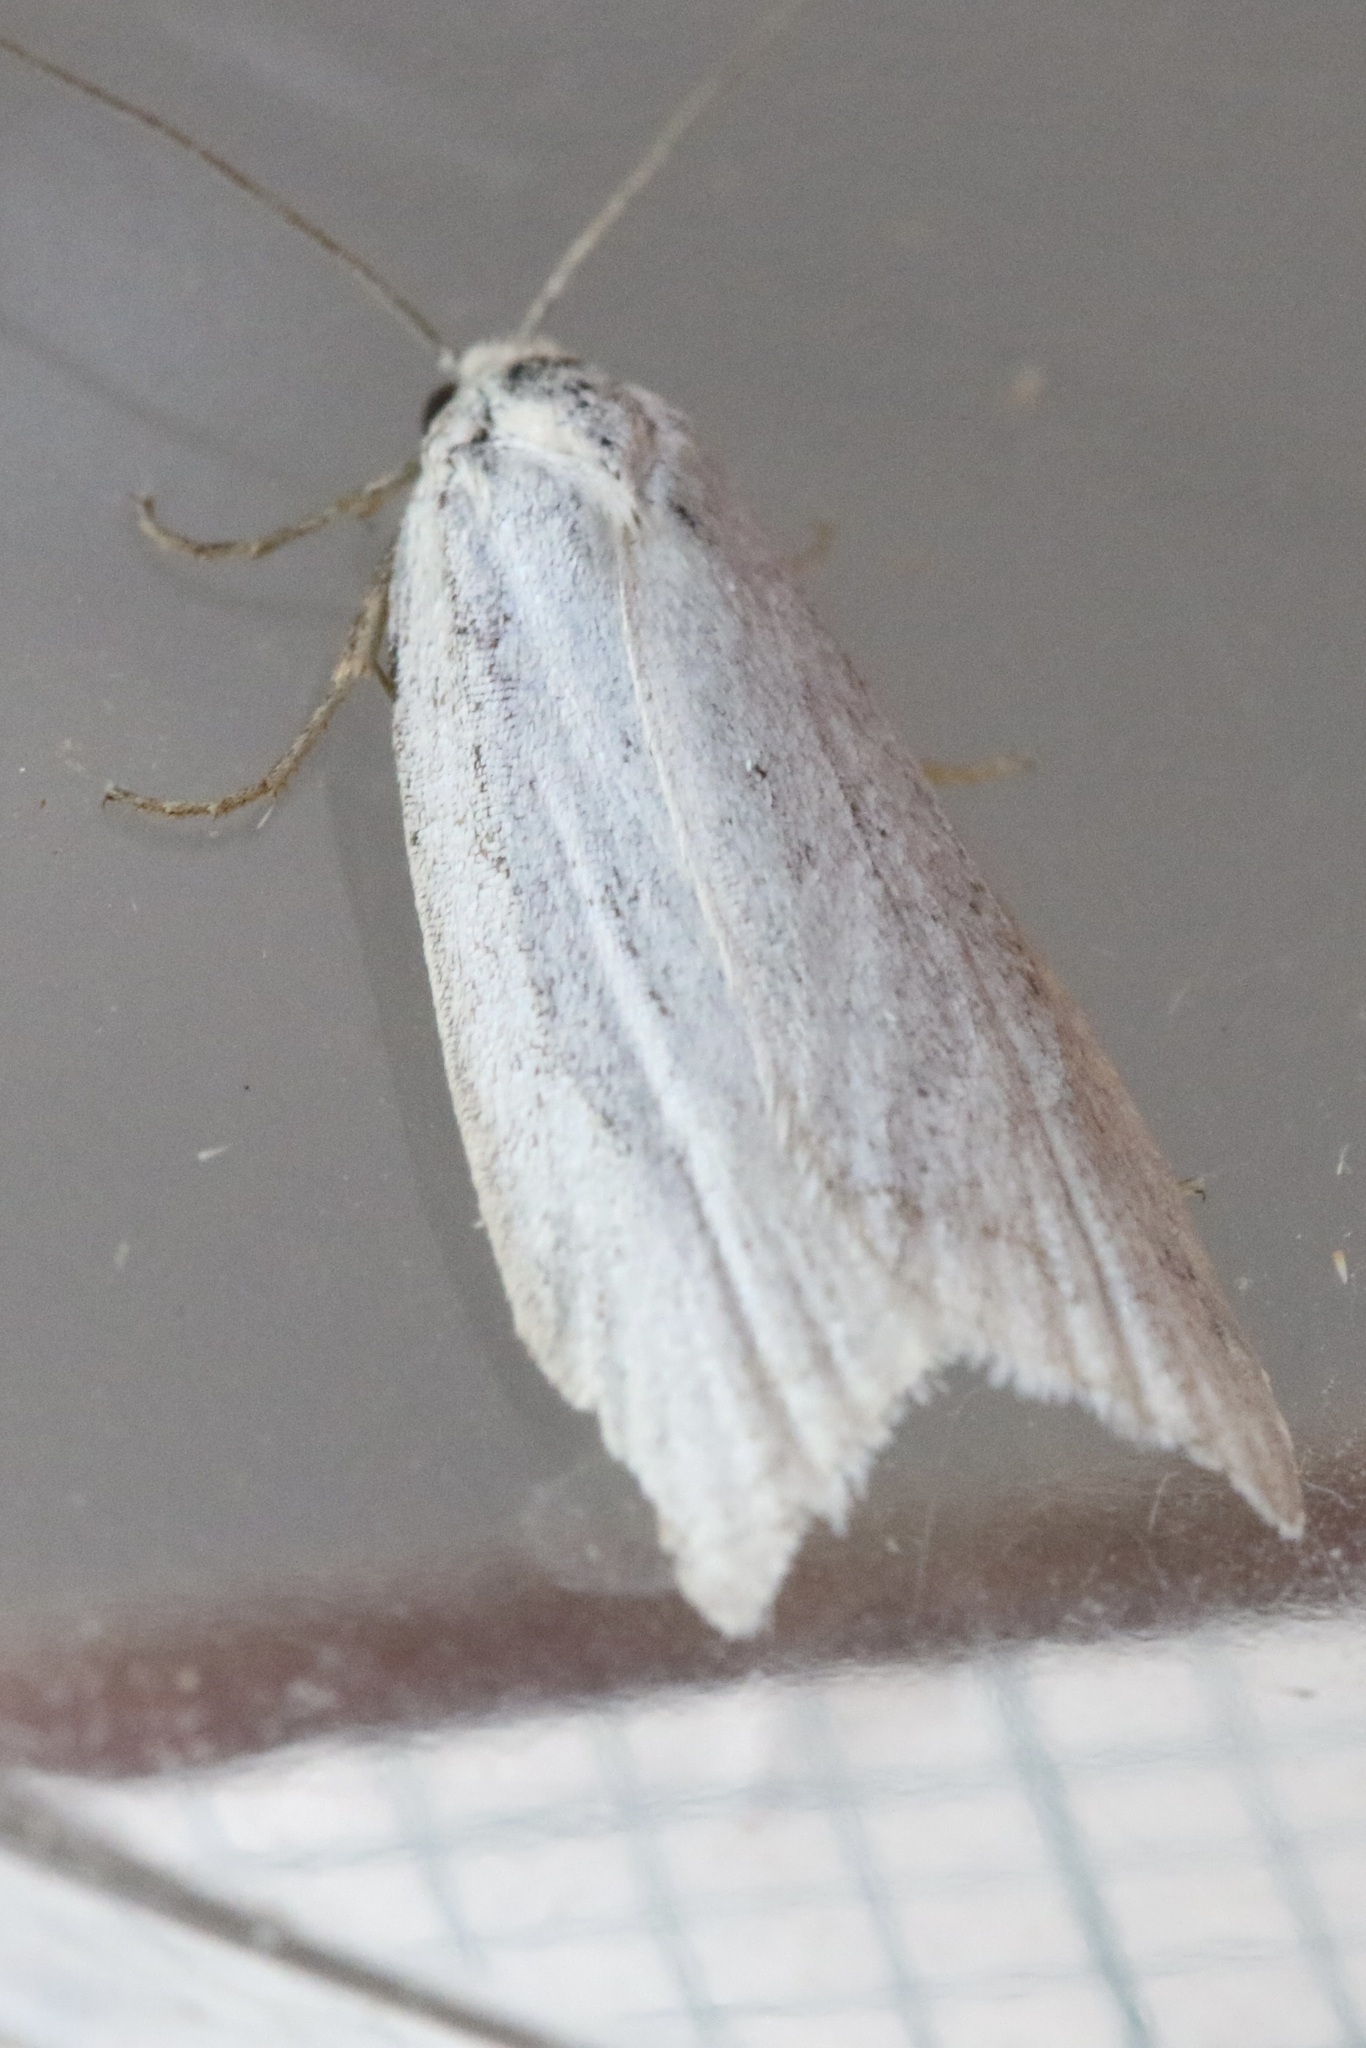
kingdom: Animalia
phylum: Arthropoda
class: Insecta
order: Lepidoptera
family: Tortricidae
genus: Eana
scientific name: Eana argentana
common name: Silver shade
